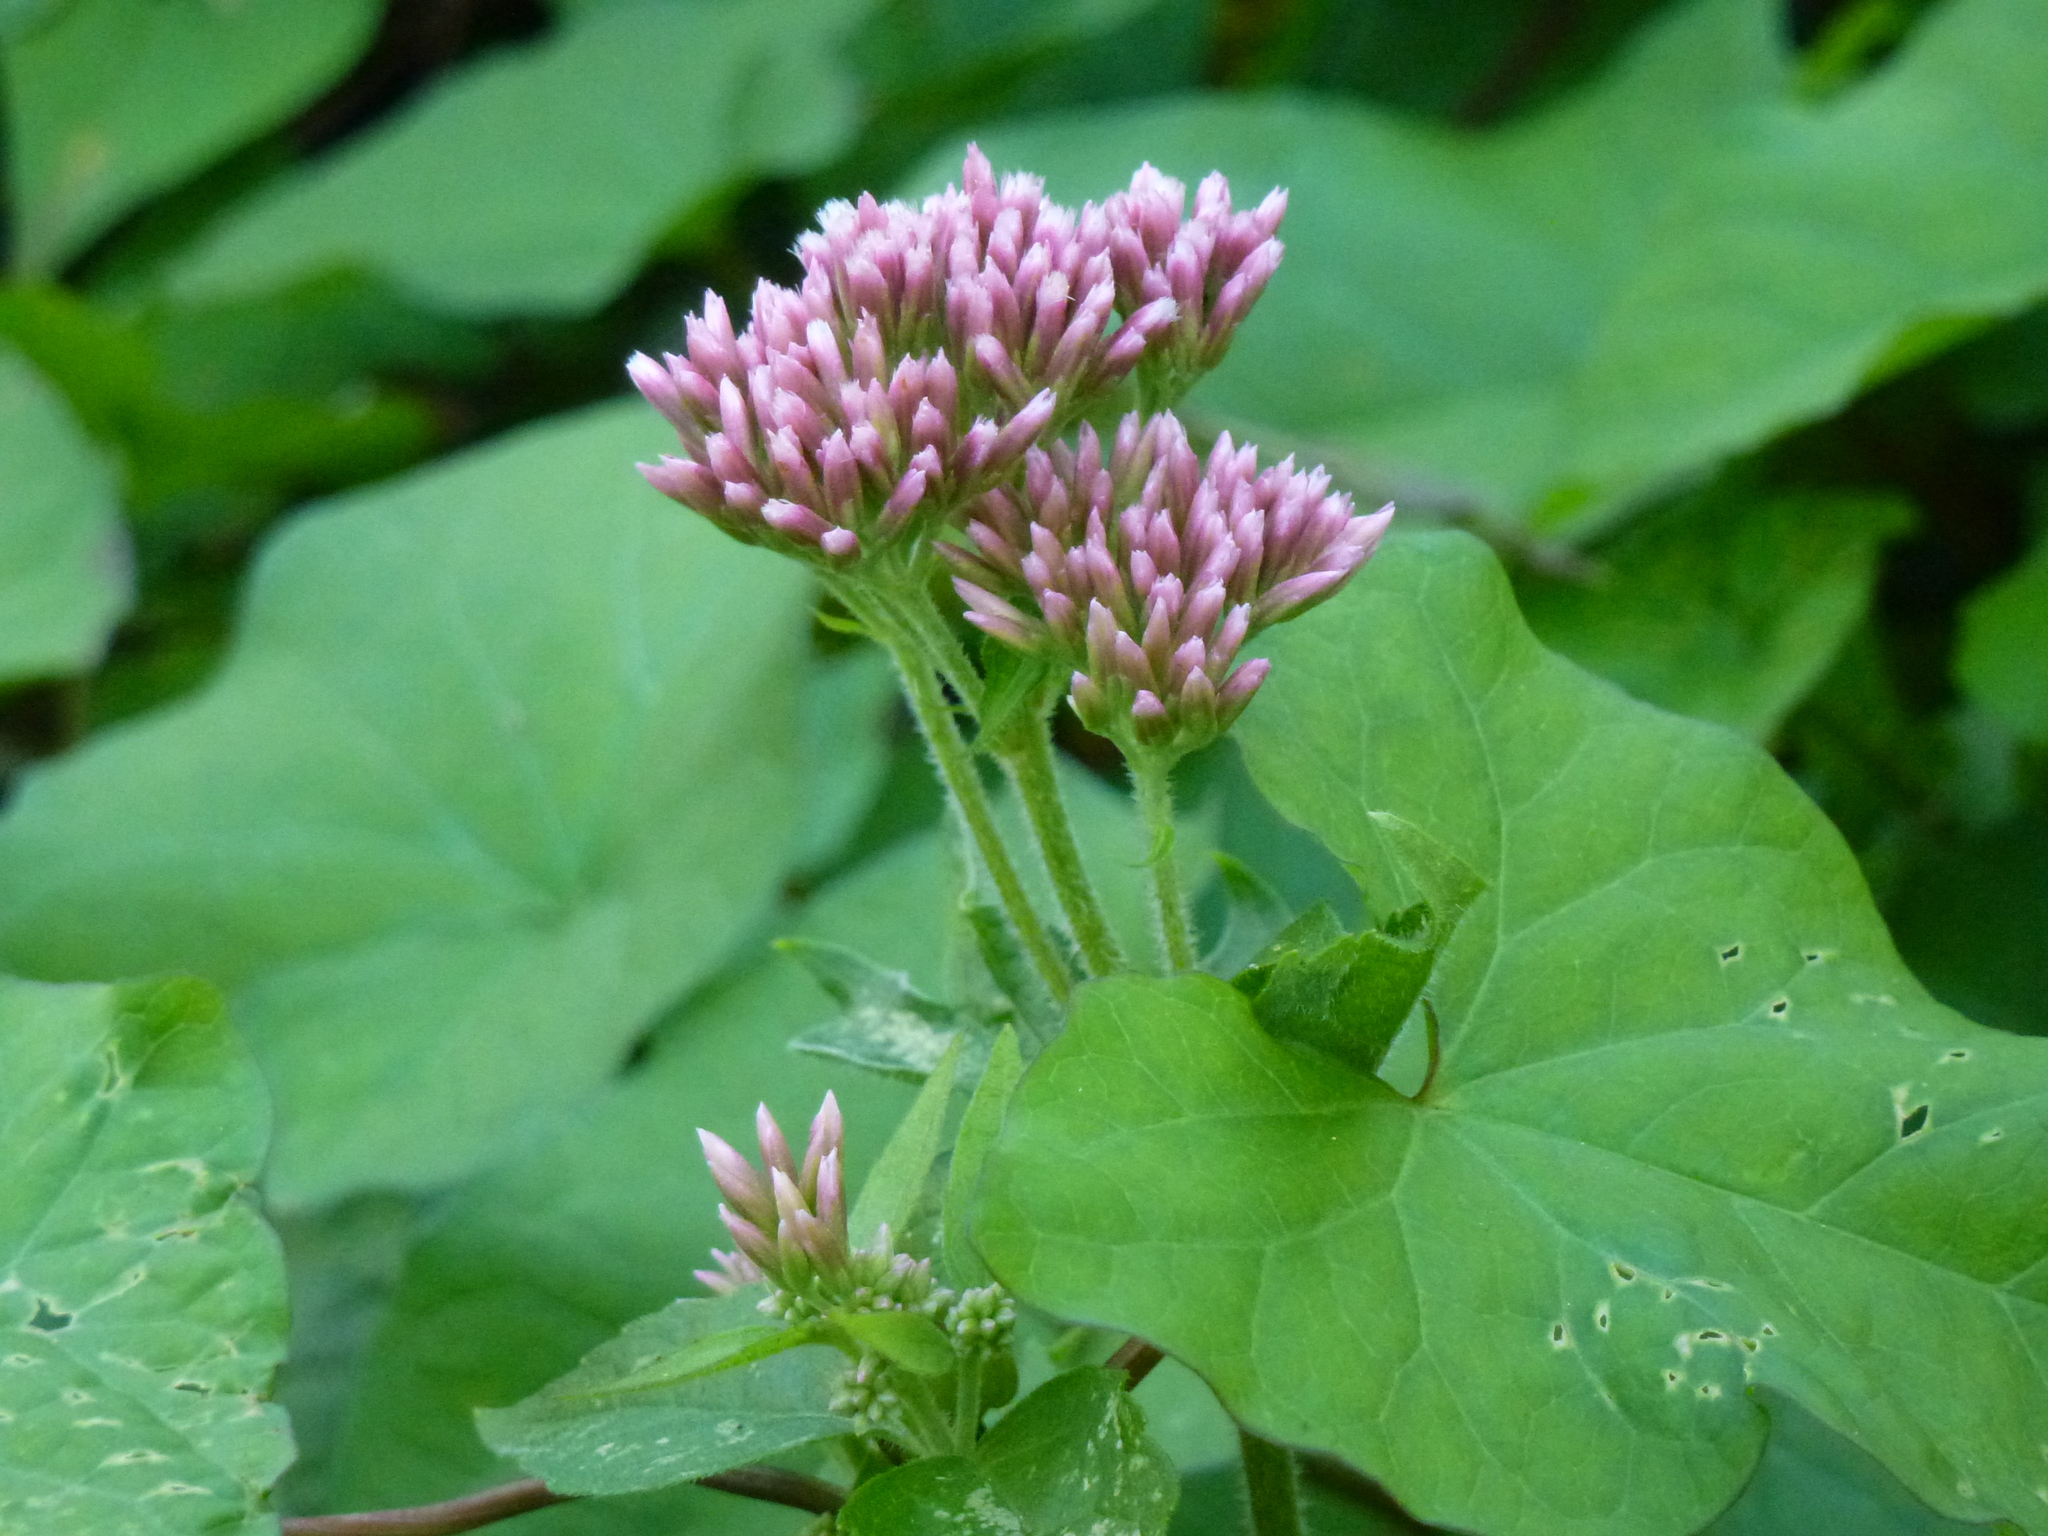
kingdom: Plantae
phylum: Tracheophyta
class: Magnoliopsida
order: Asterales
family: Asteraceae
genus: Eupatorium
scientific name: Eupatorium cannabinum
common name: Hemp-agrimony
